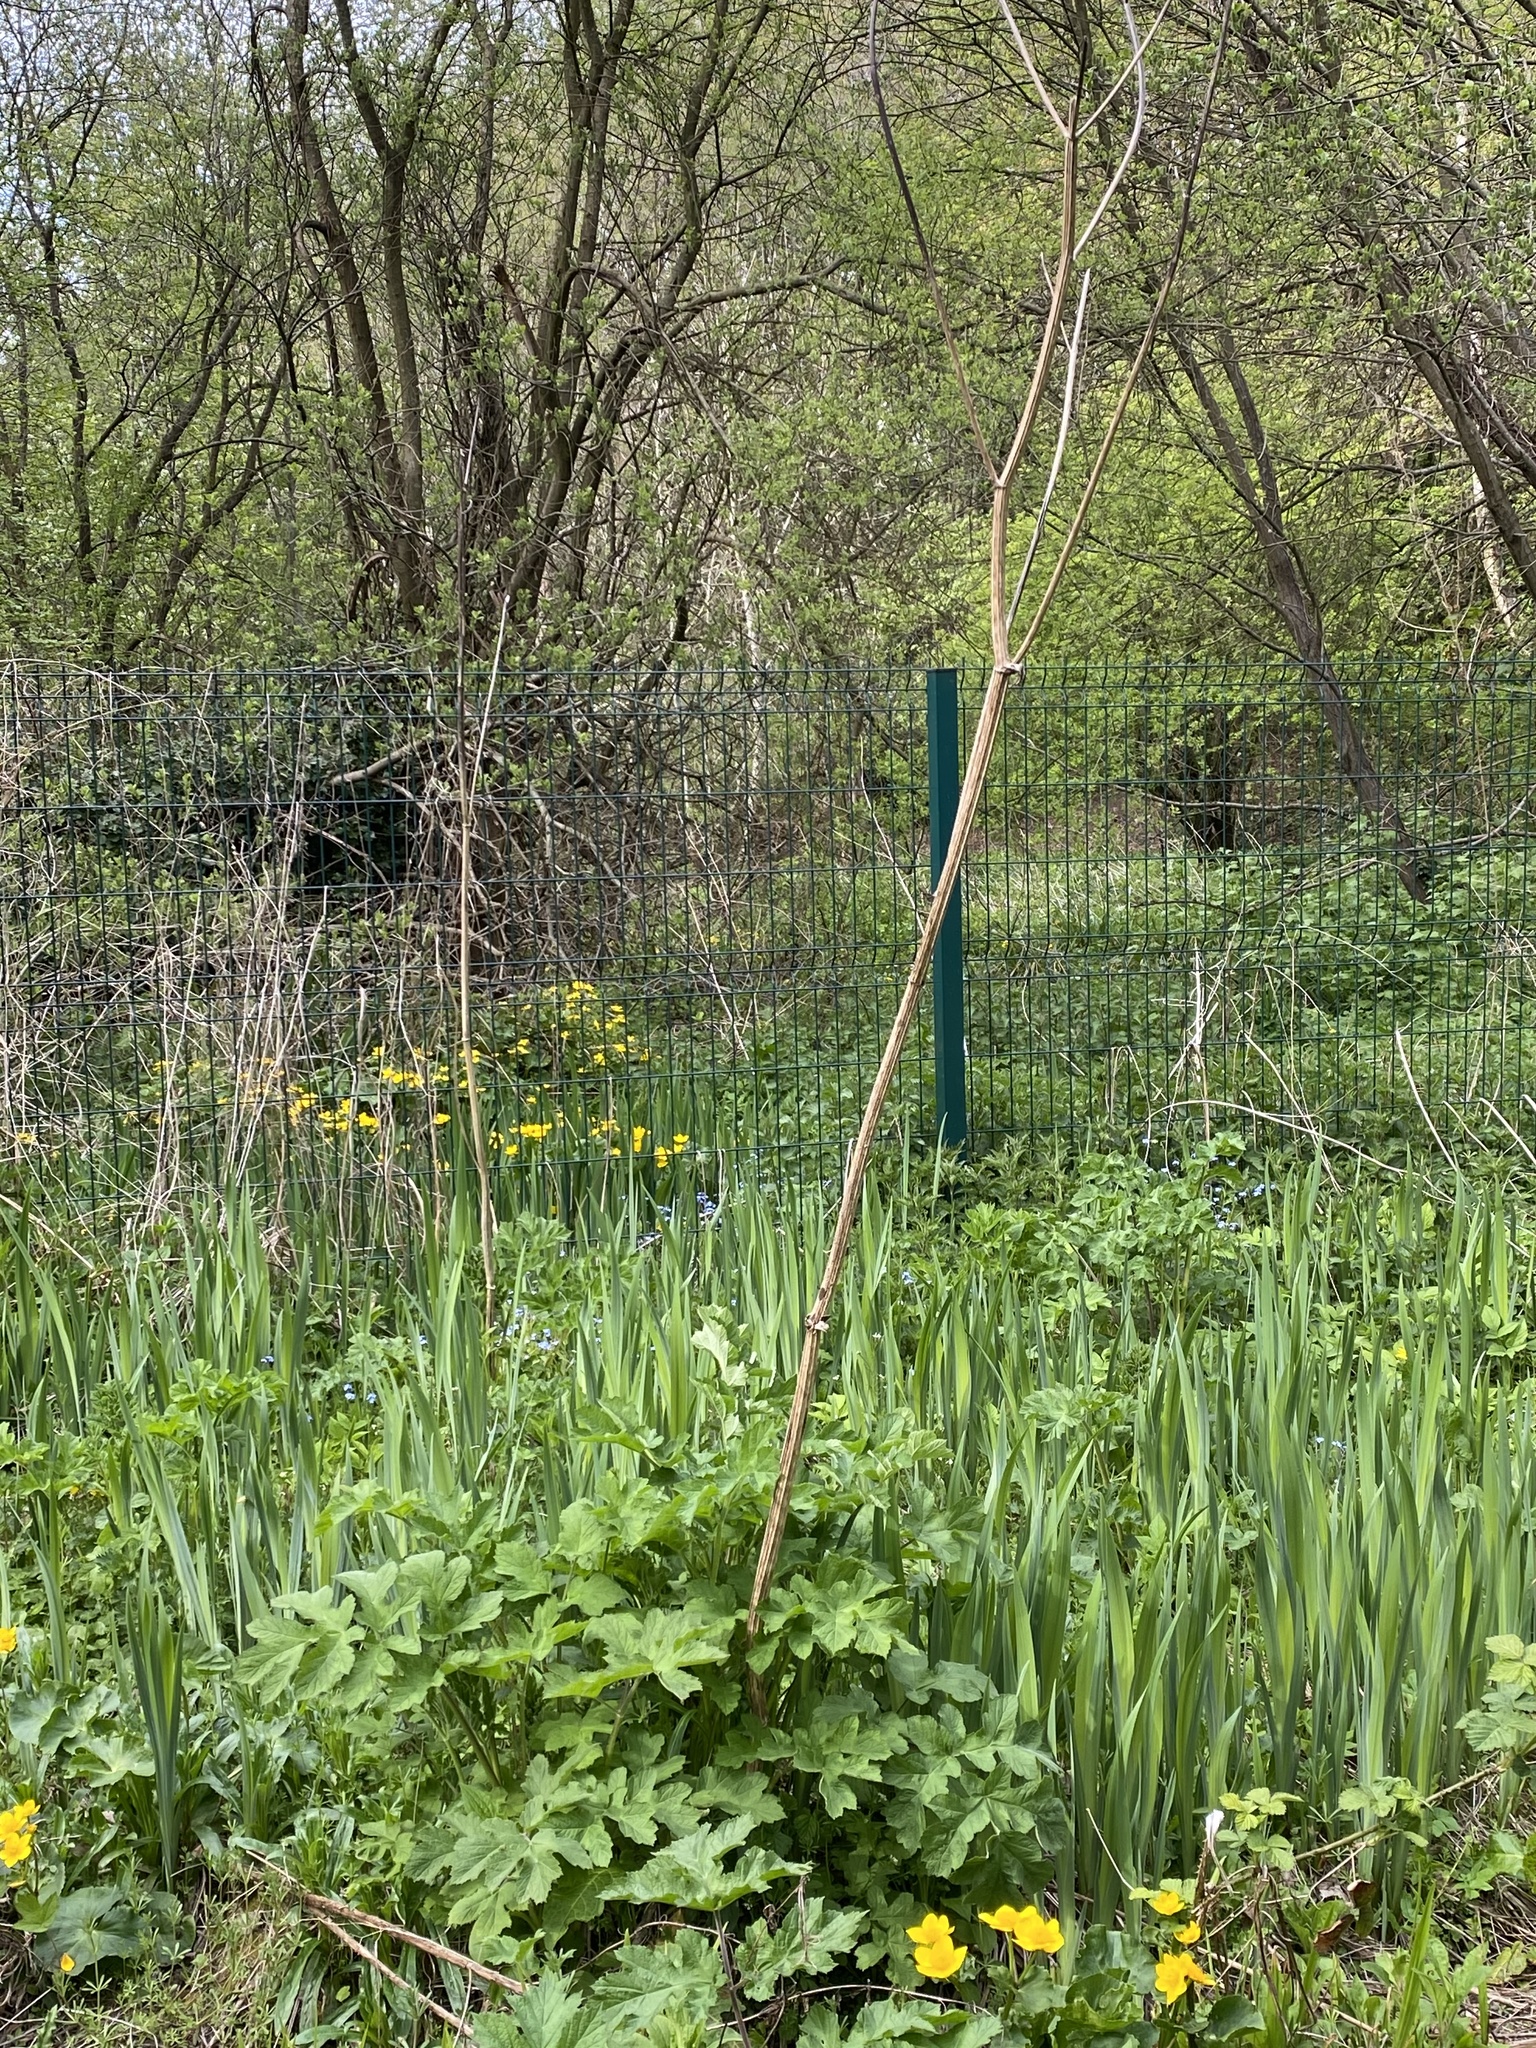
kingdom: Plantae
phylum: Tracheophyta
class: Magnoliopsida
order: Apiales
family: Apiaceae
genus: Heracleum
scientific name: Heracleum sphondylium
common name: Hogweed
